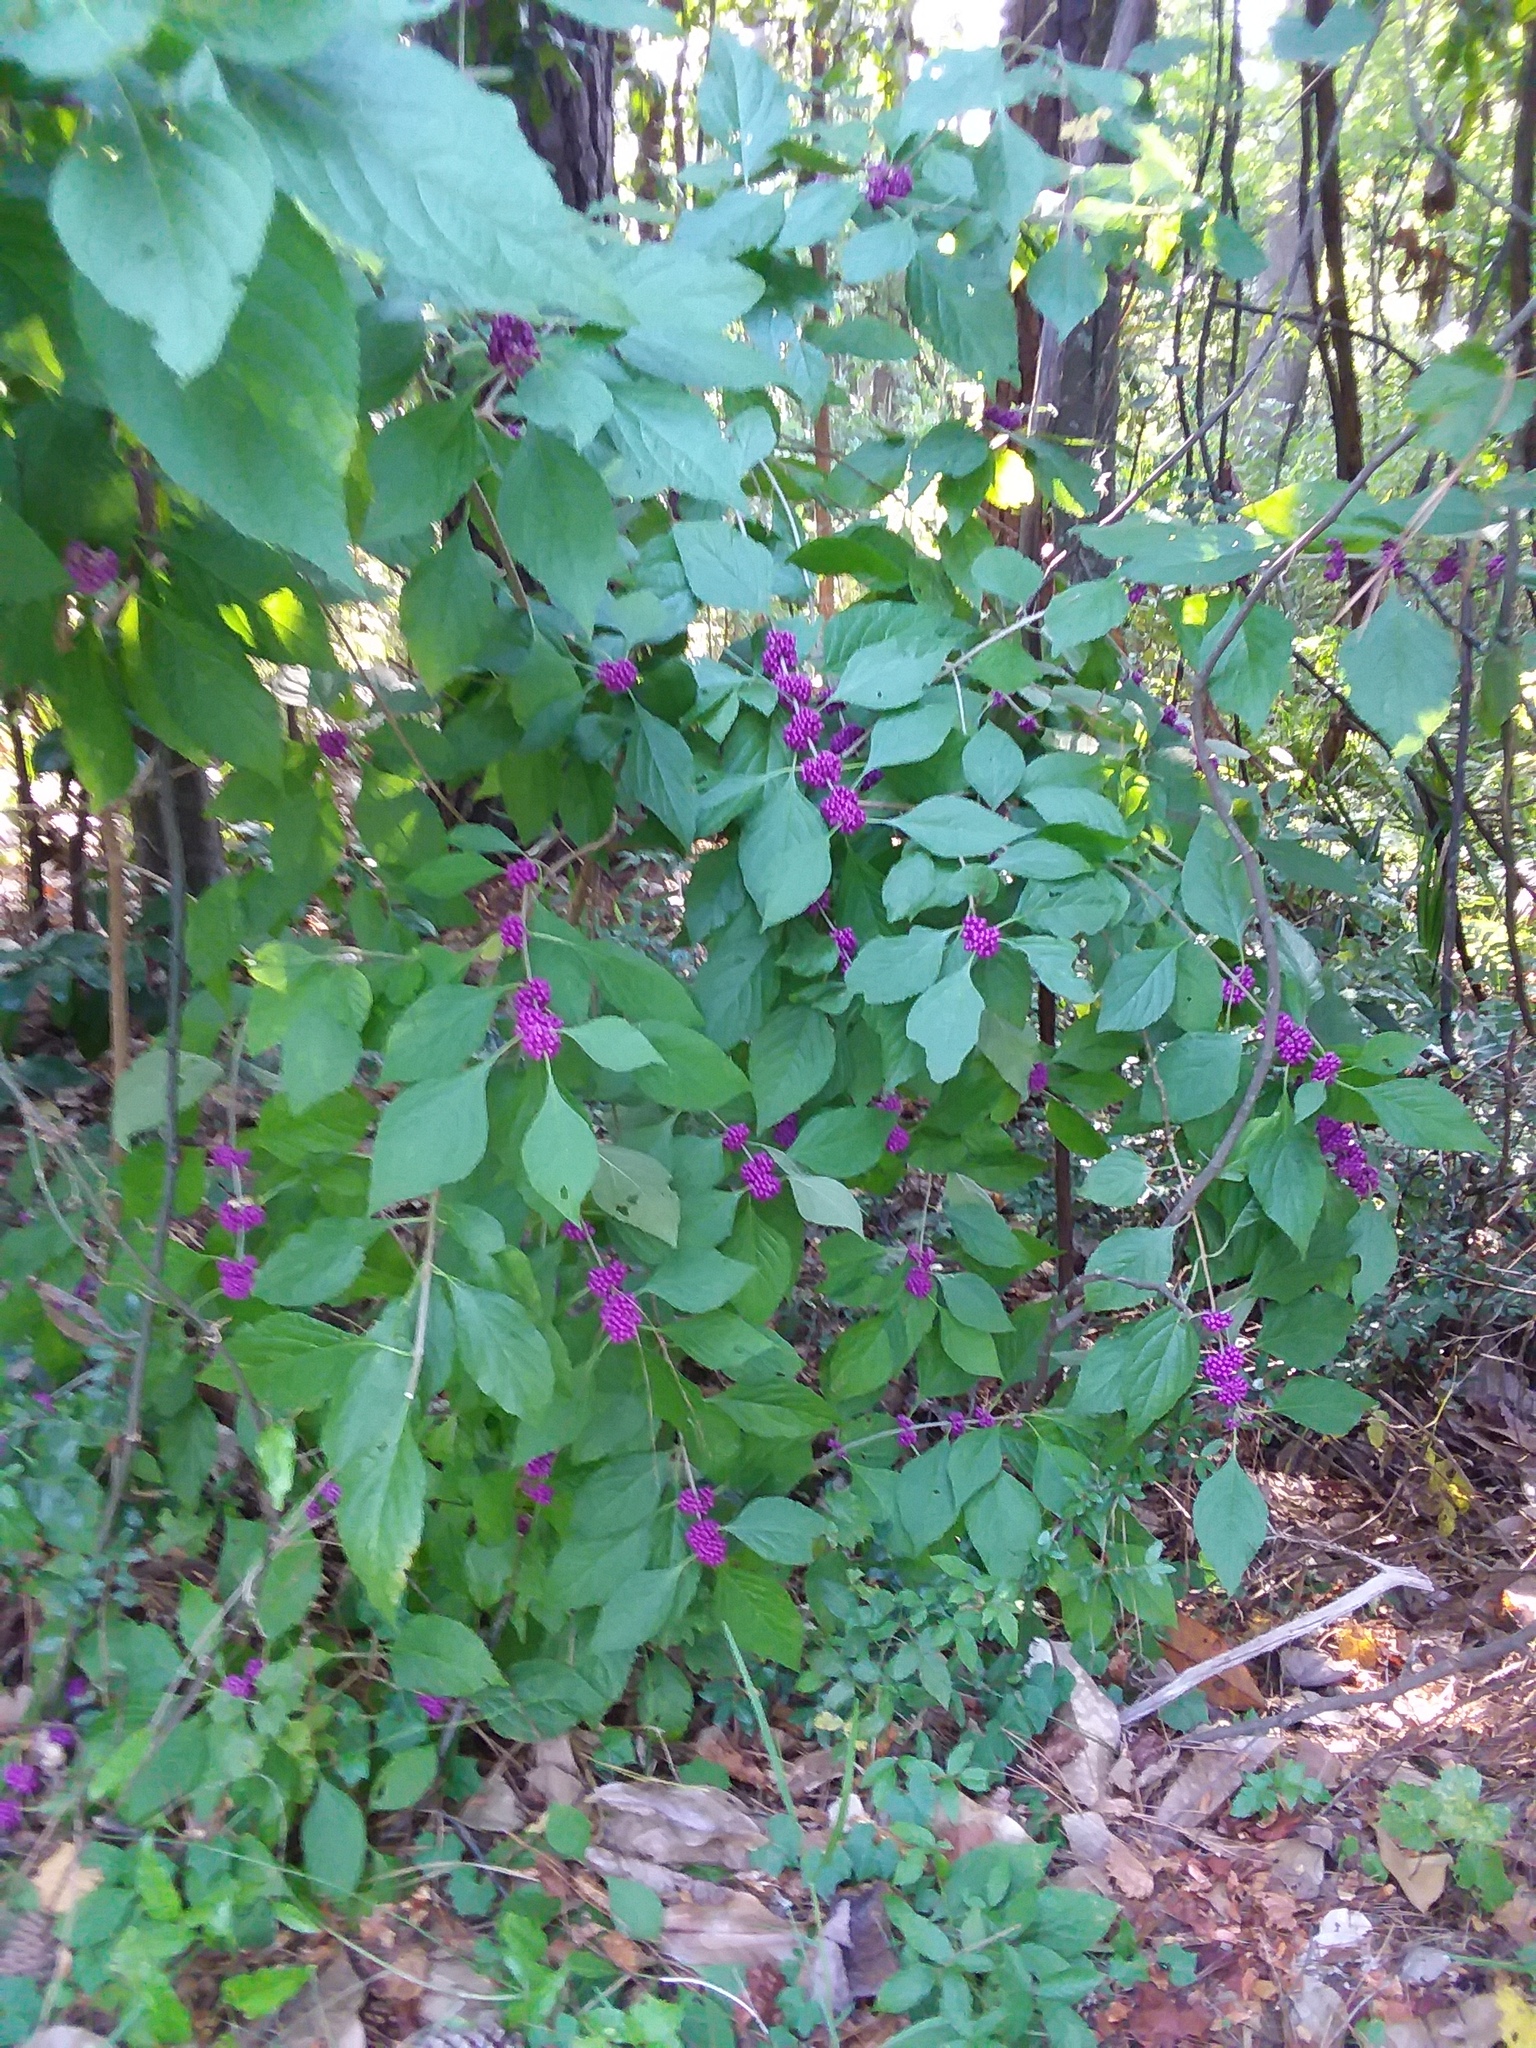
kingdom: Plantae
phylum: Tracheophyta
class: Magnoliopsida
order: Lamiales
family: Lamiaceae
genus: Callicarpa
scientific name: Callicarpa americana
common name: American beautyberry
